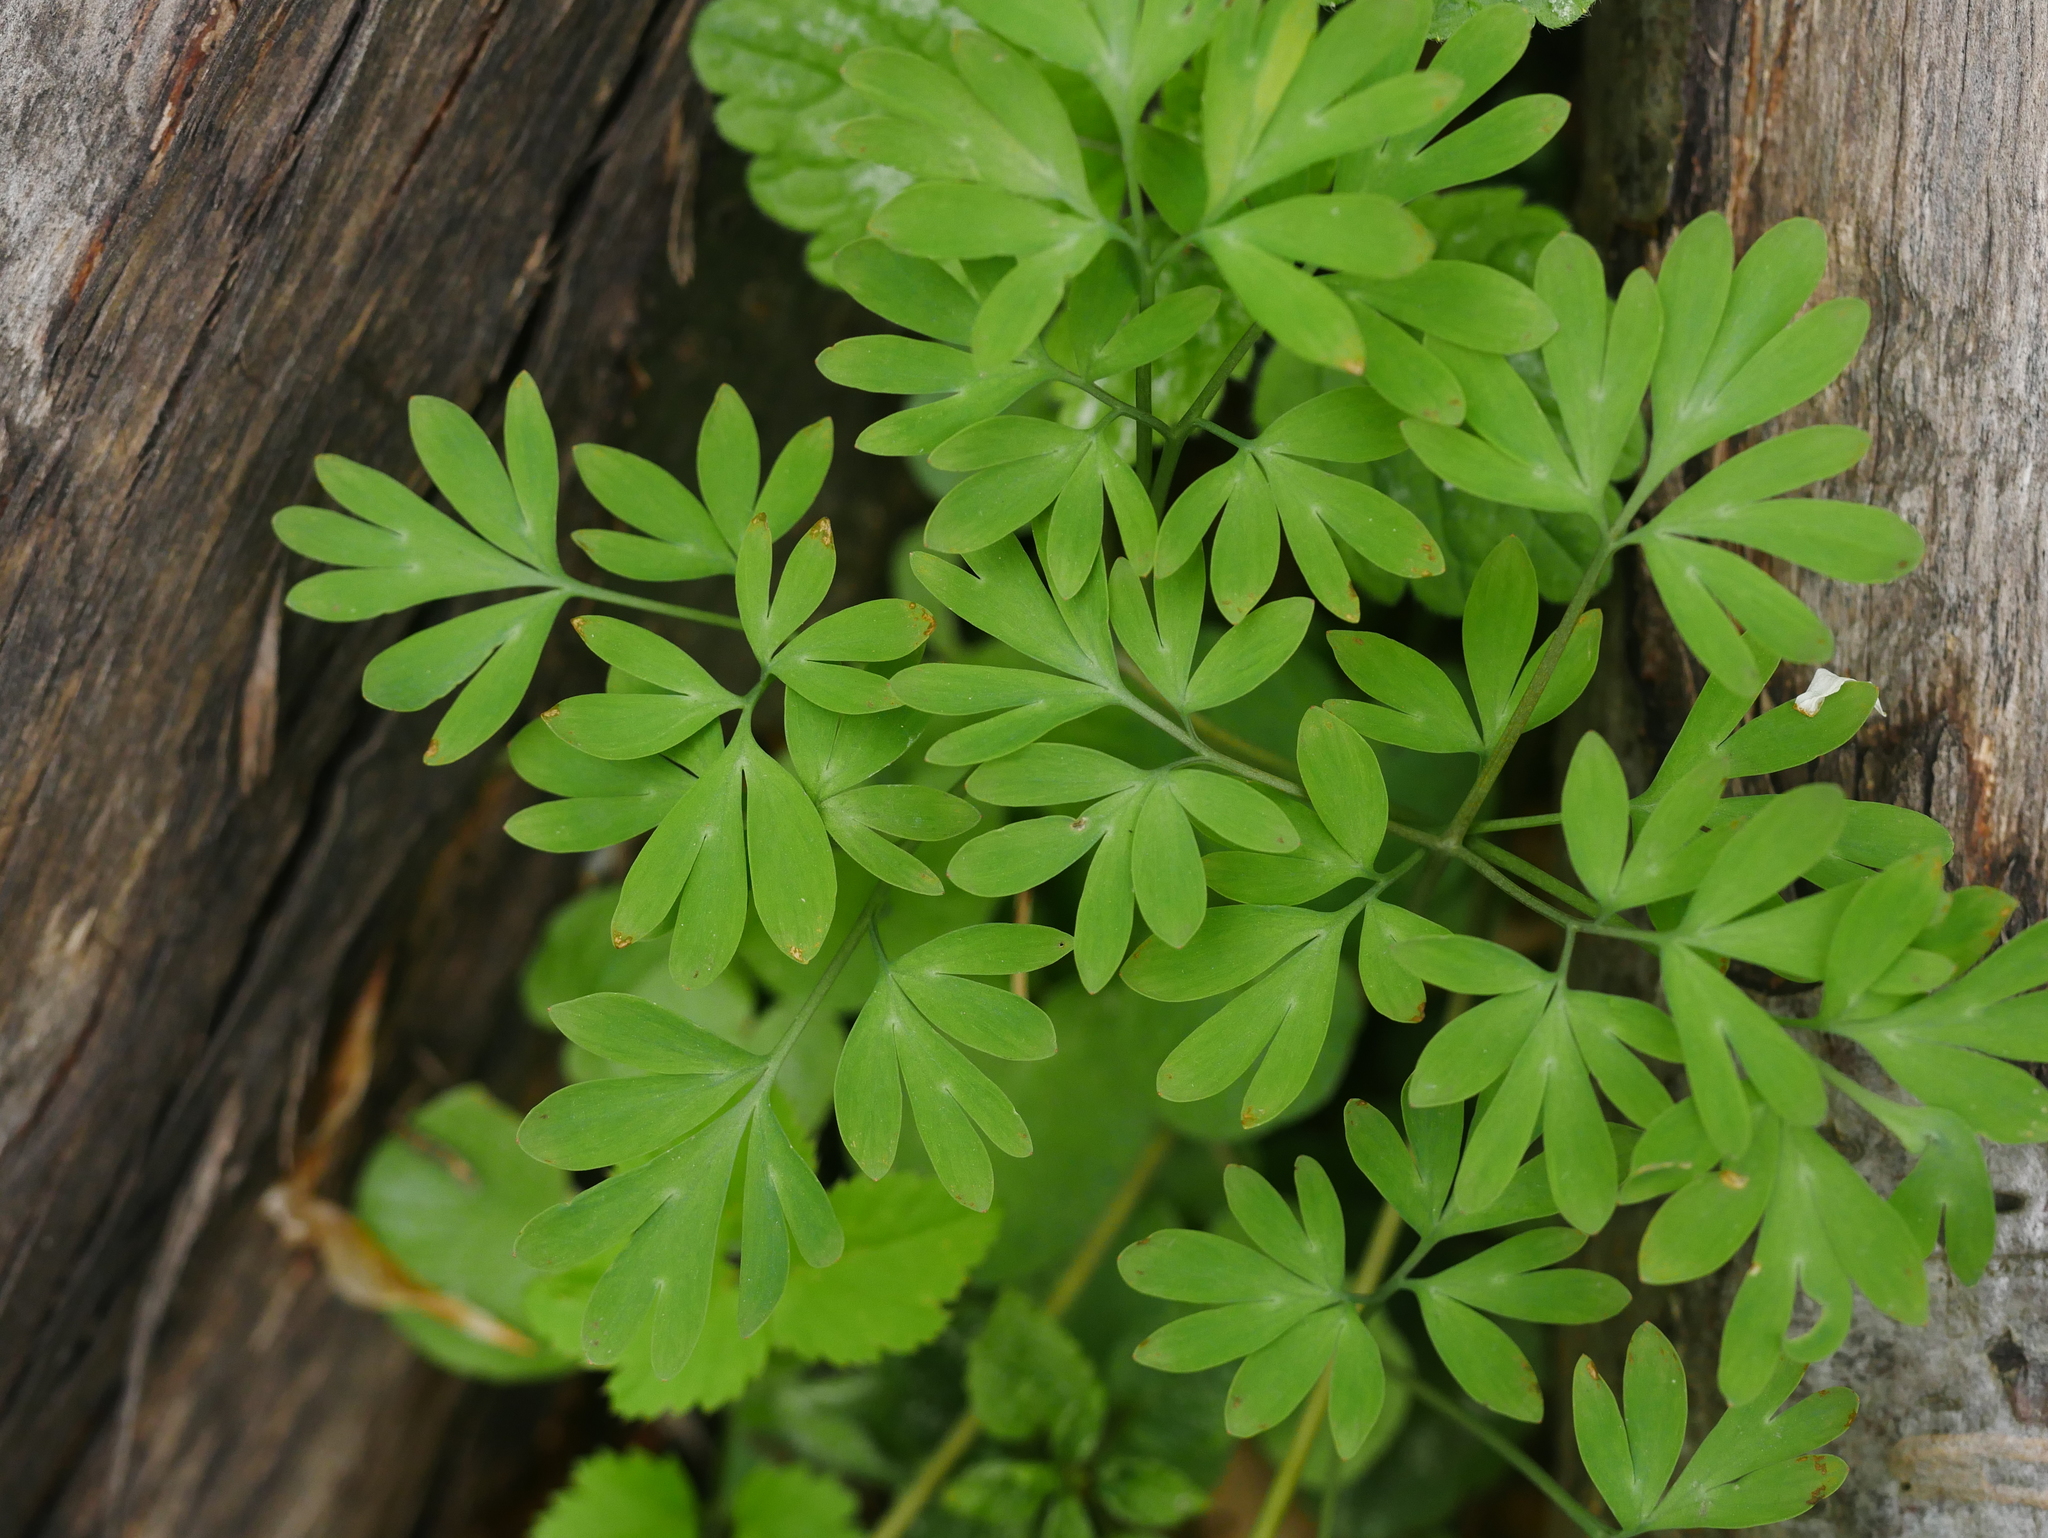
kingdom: Plantae
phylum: Tracheophyta
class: Magnoliopsida
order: Ranunculales
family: Papaveraceae
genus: Corydalis
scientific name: Corydalis solida
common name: Bird-in-a-bush
